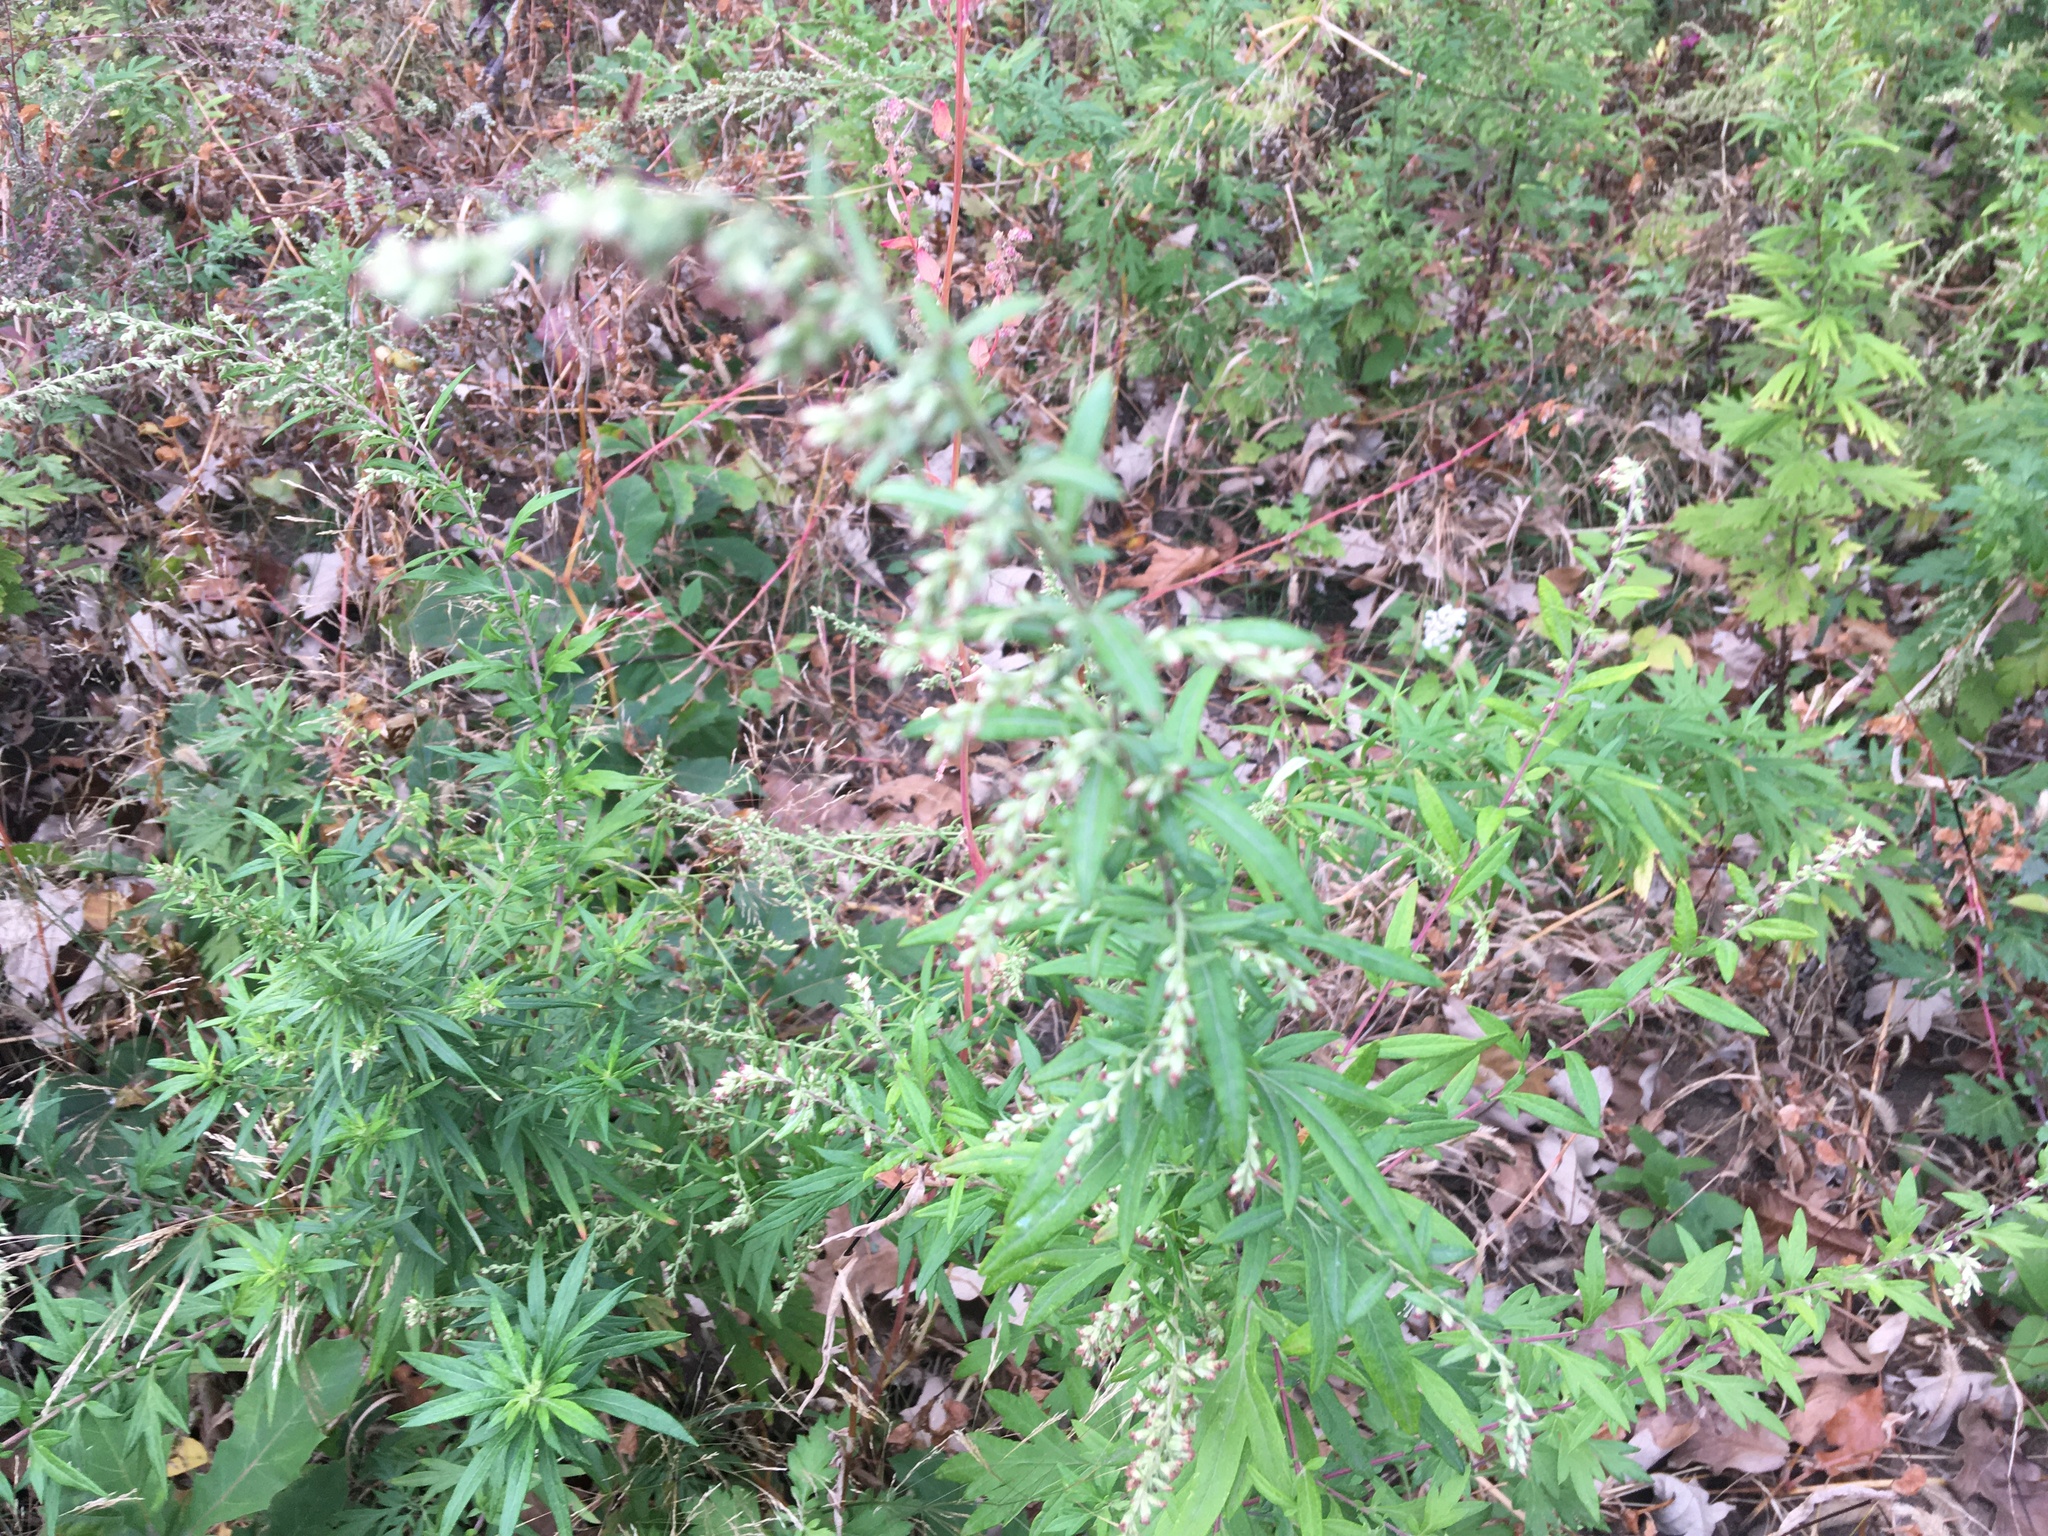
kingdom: Plantae
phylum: Tracheophyta
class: Magnoliopsida
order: Asterales
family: Asteraceae
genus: Artemisia
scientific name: Artemisia vulgaris
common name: Mugwort
